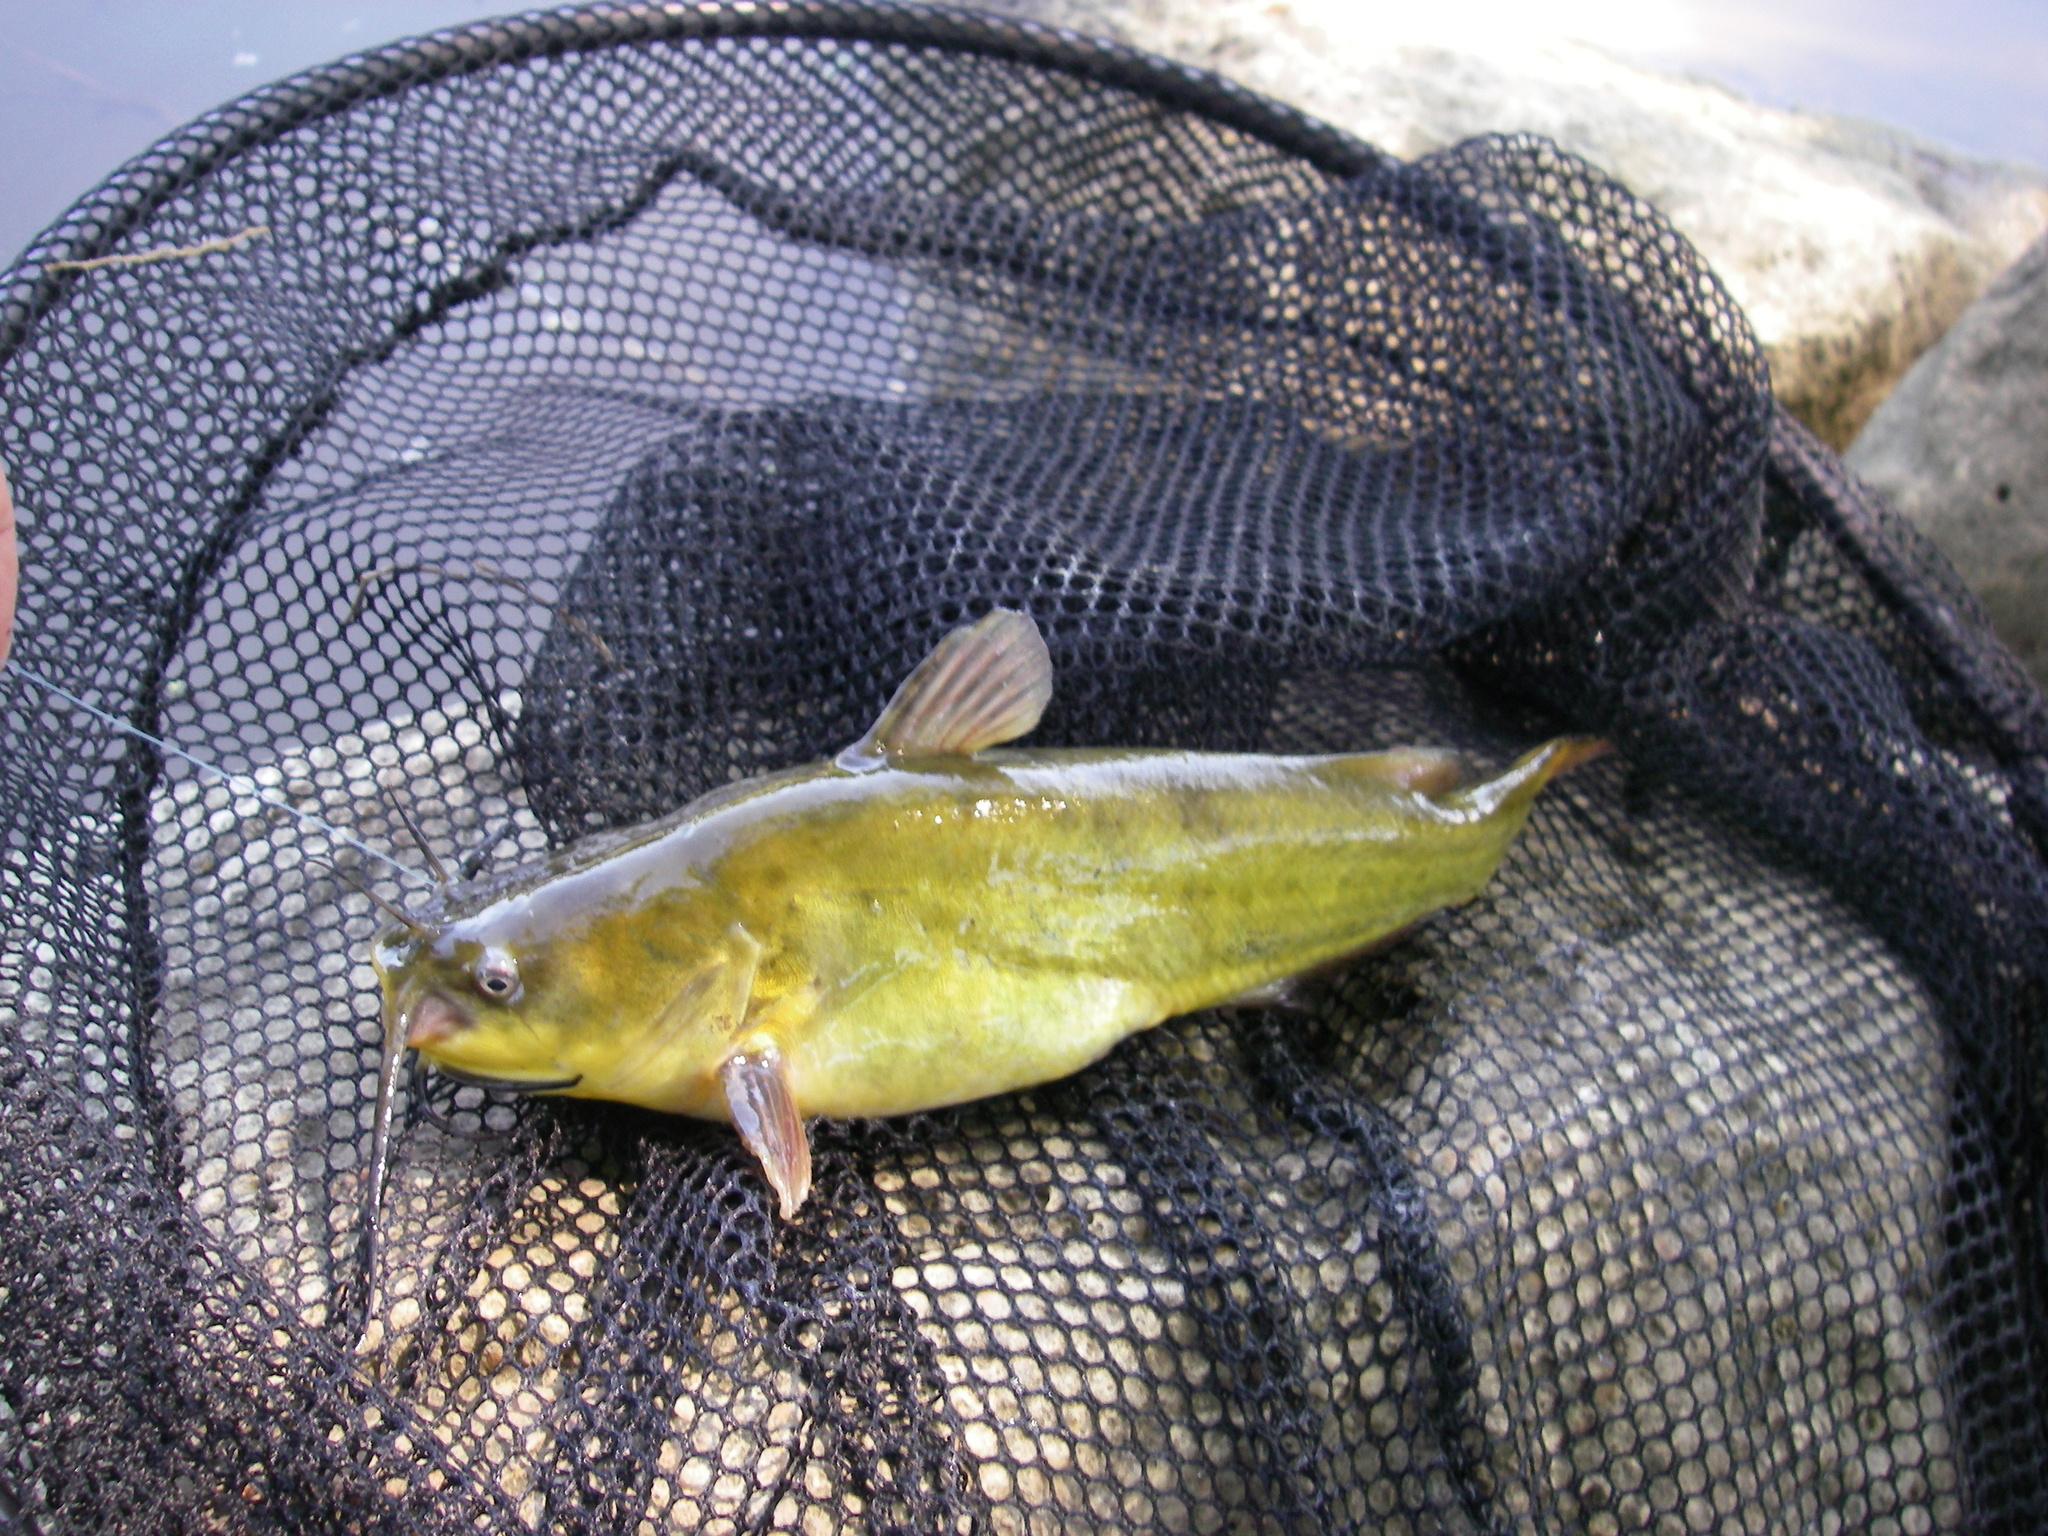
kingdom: Animalia
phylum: Chordata
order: Siluriformes
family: Ictaluridae
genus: Ameiurus
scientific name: Ameiurus melas
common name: Black bullhead
